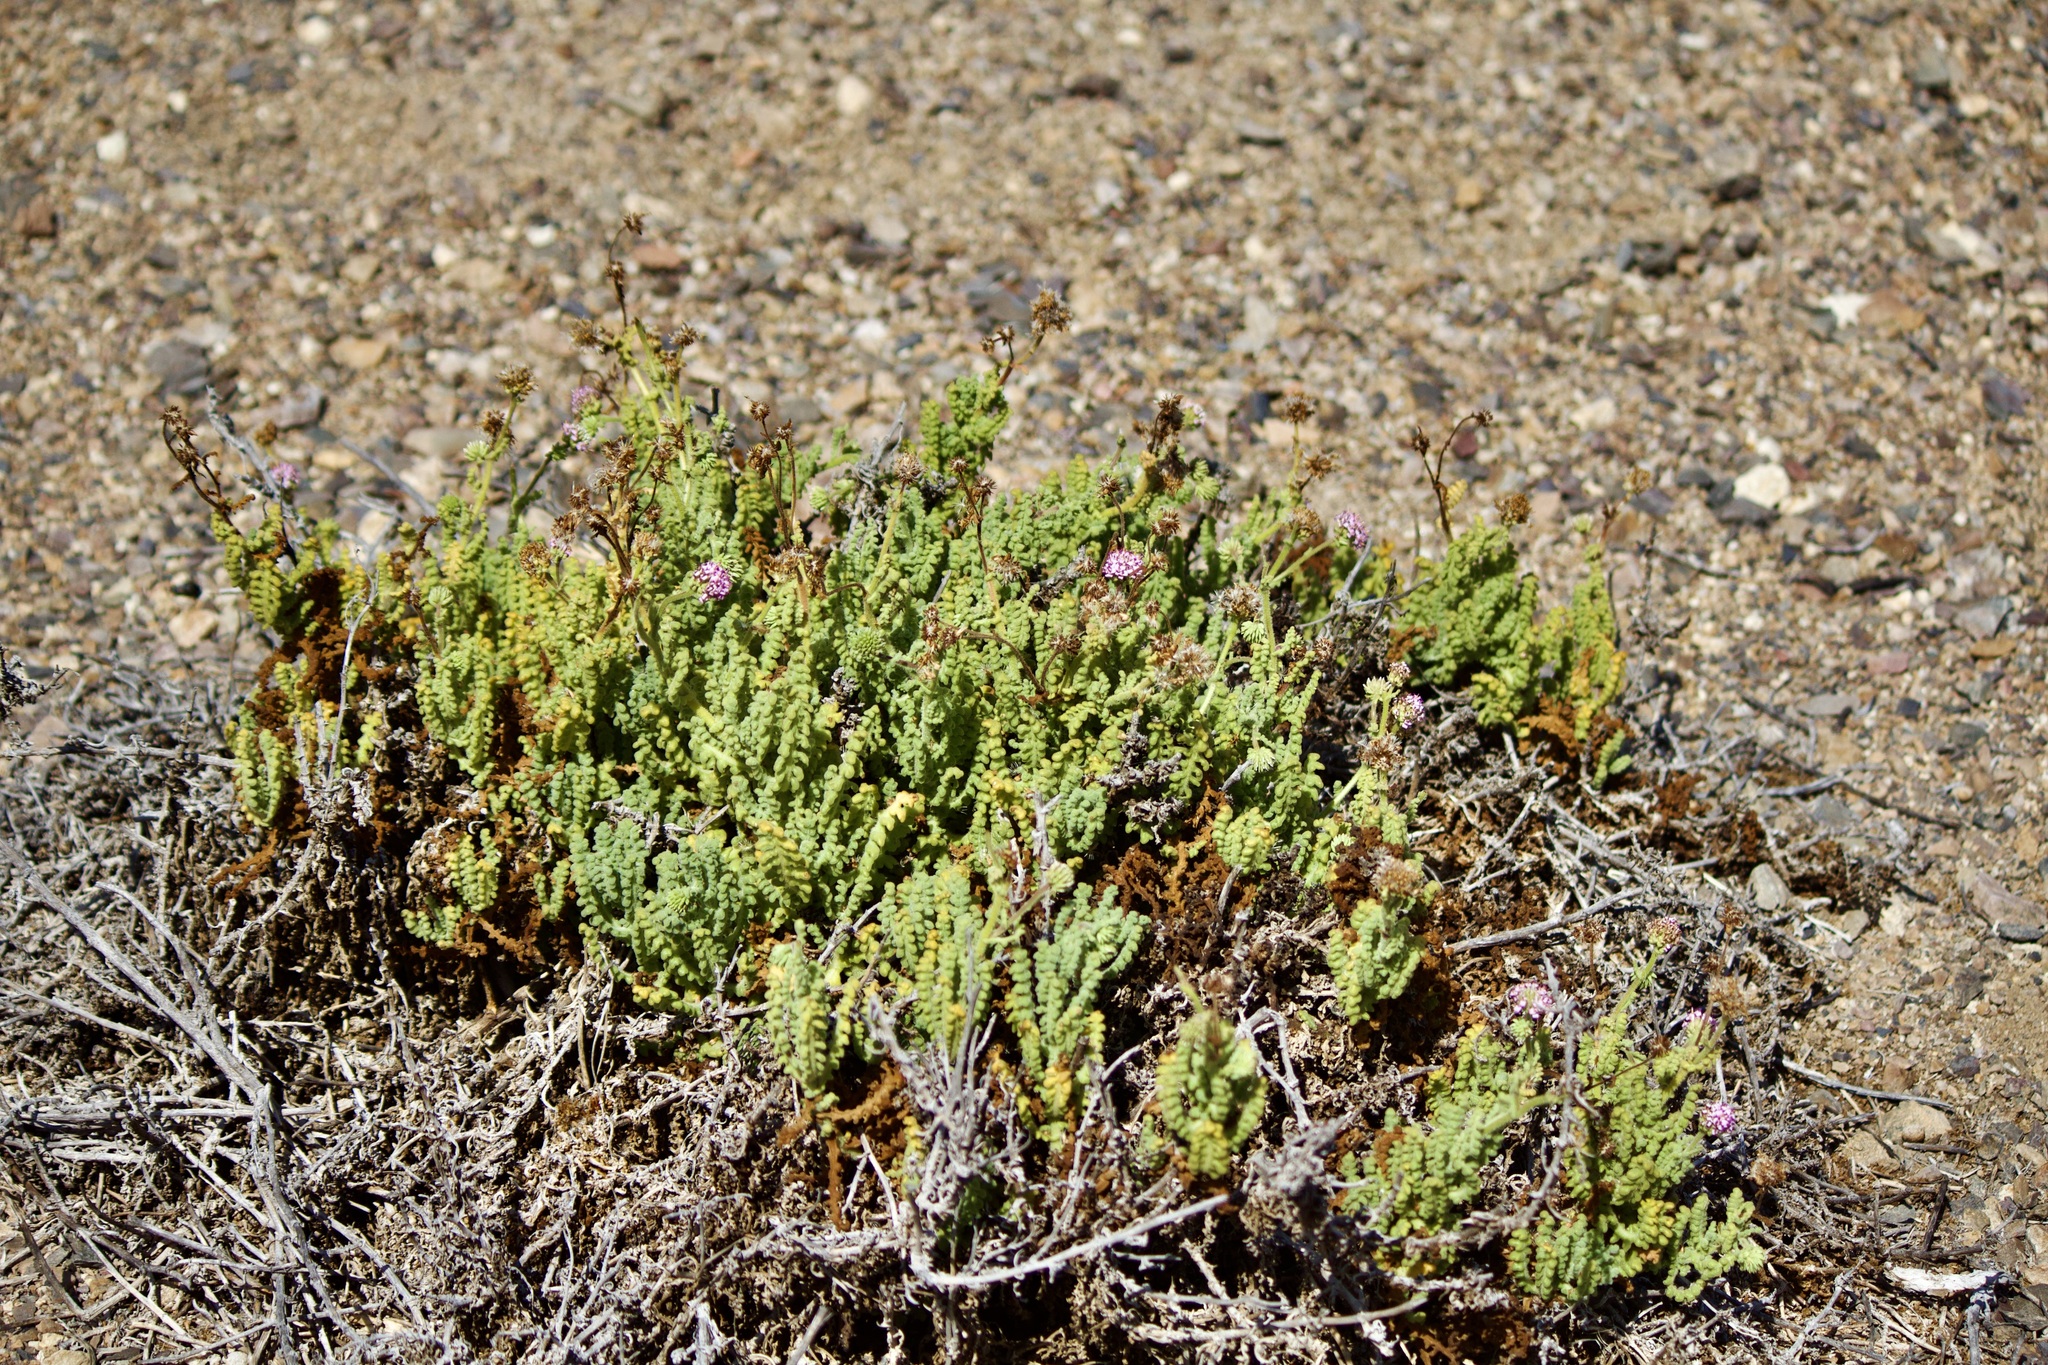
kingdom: Plantae
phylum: Tracheophyta
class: Magnoliopsida
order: Asterales
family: Asteraceae
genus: Polyachyrus
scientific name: Polyachyrus fuscus
